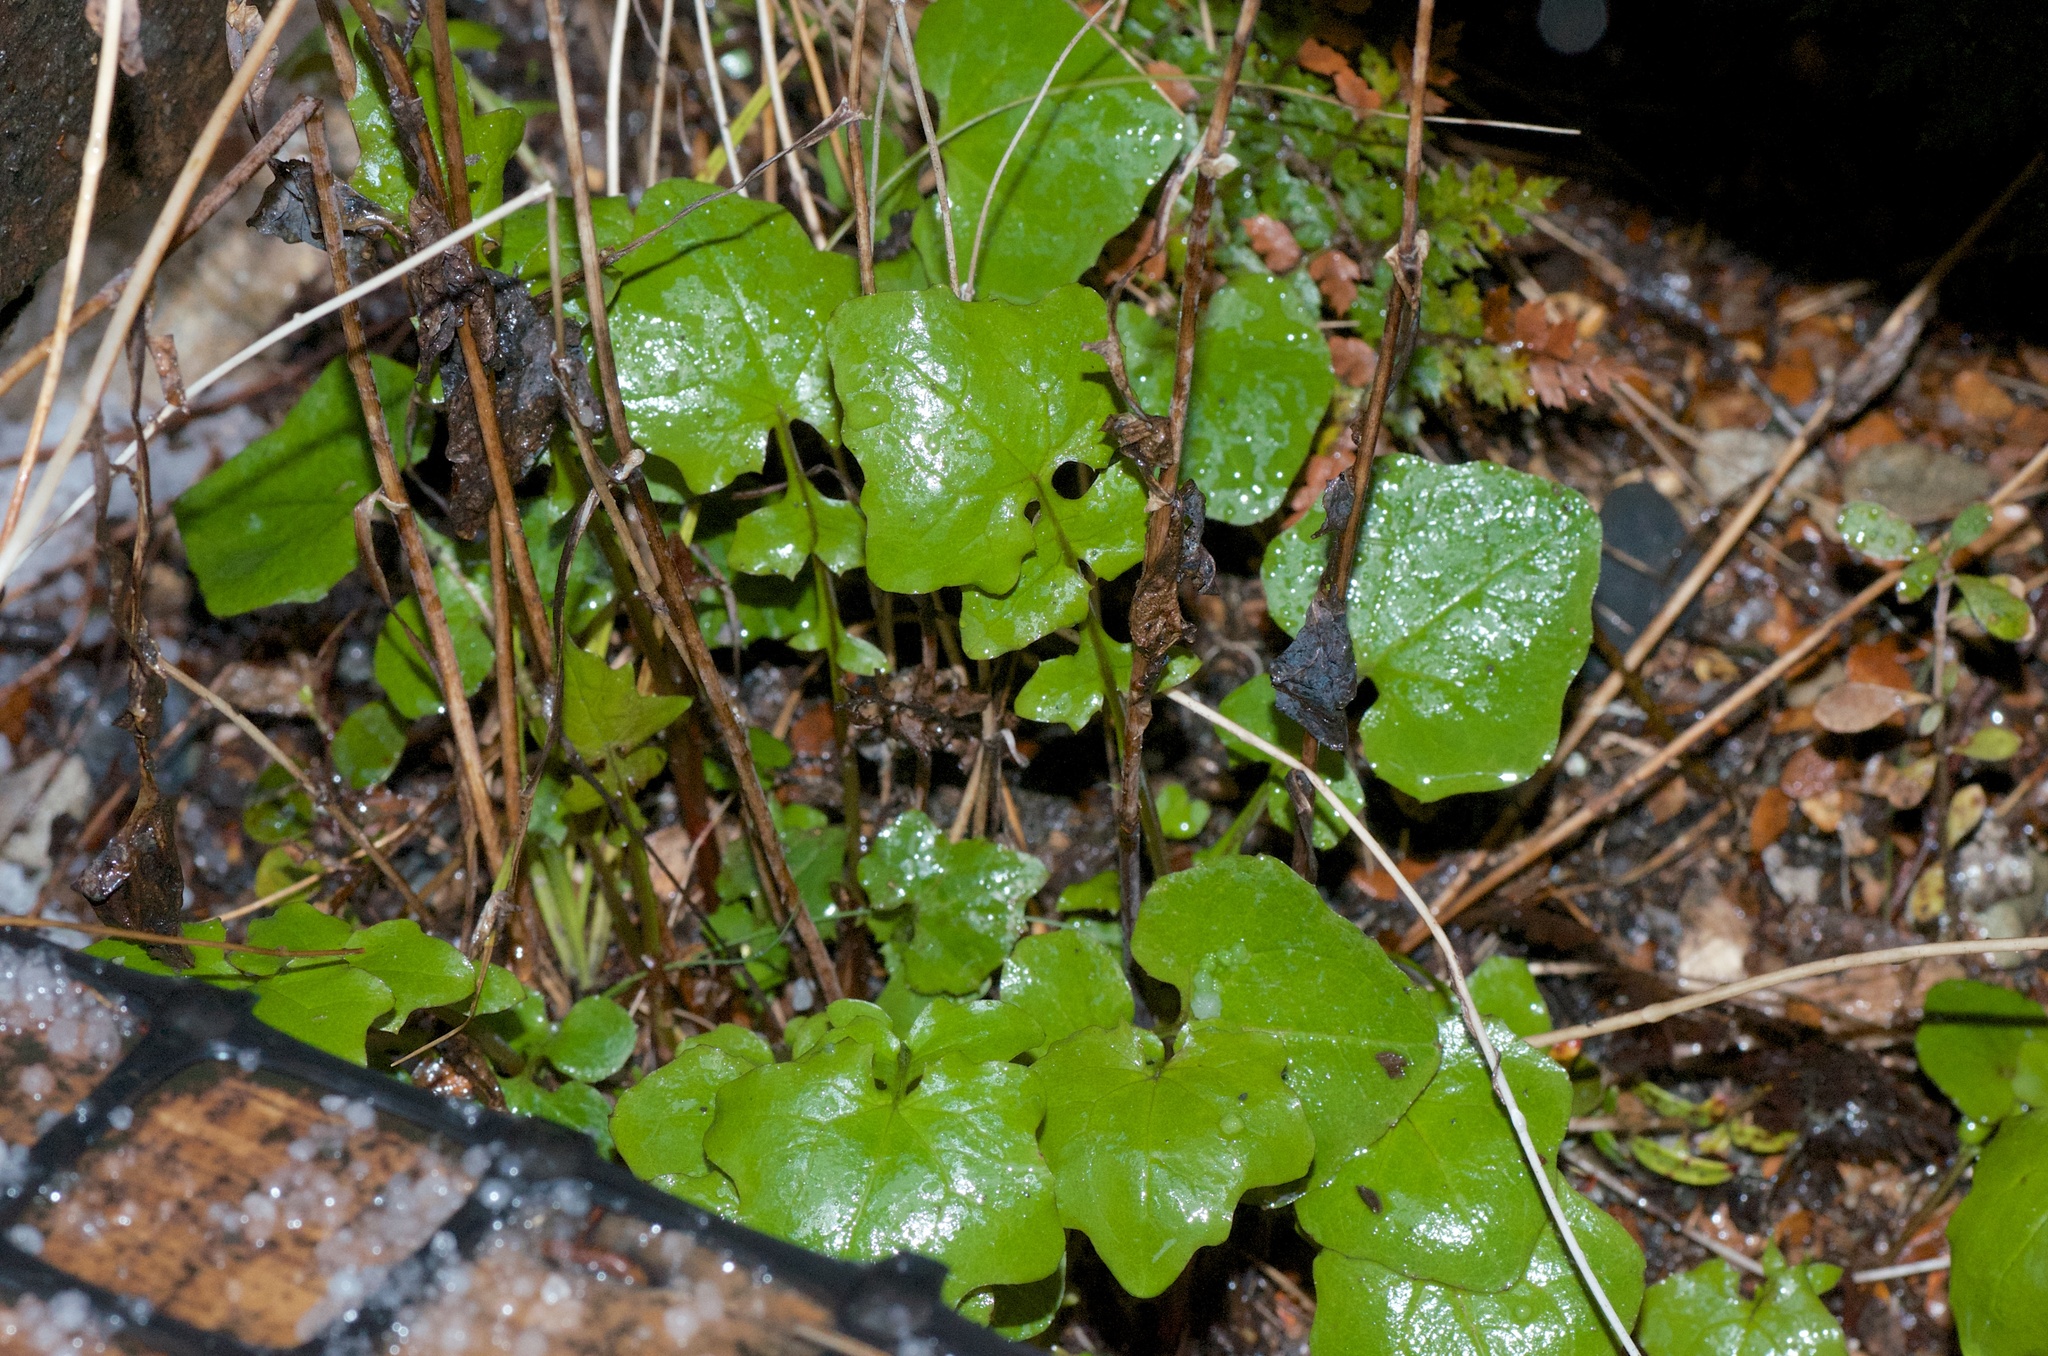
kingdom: Plantae
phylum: Tracheophyta
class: Magnoliopsida
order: Asterales
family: Asteraceae
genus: Mycelis
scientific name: Mycelis muralis
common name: Wall lettuce
